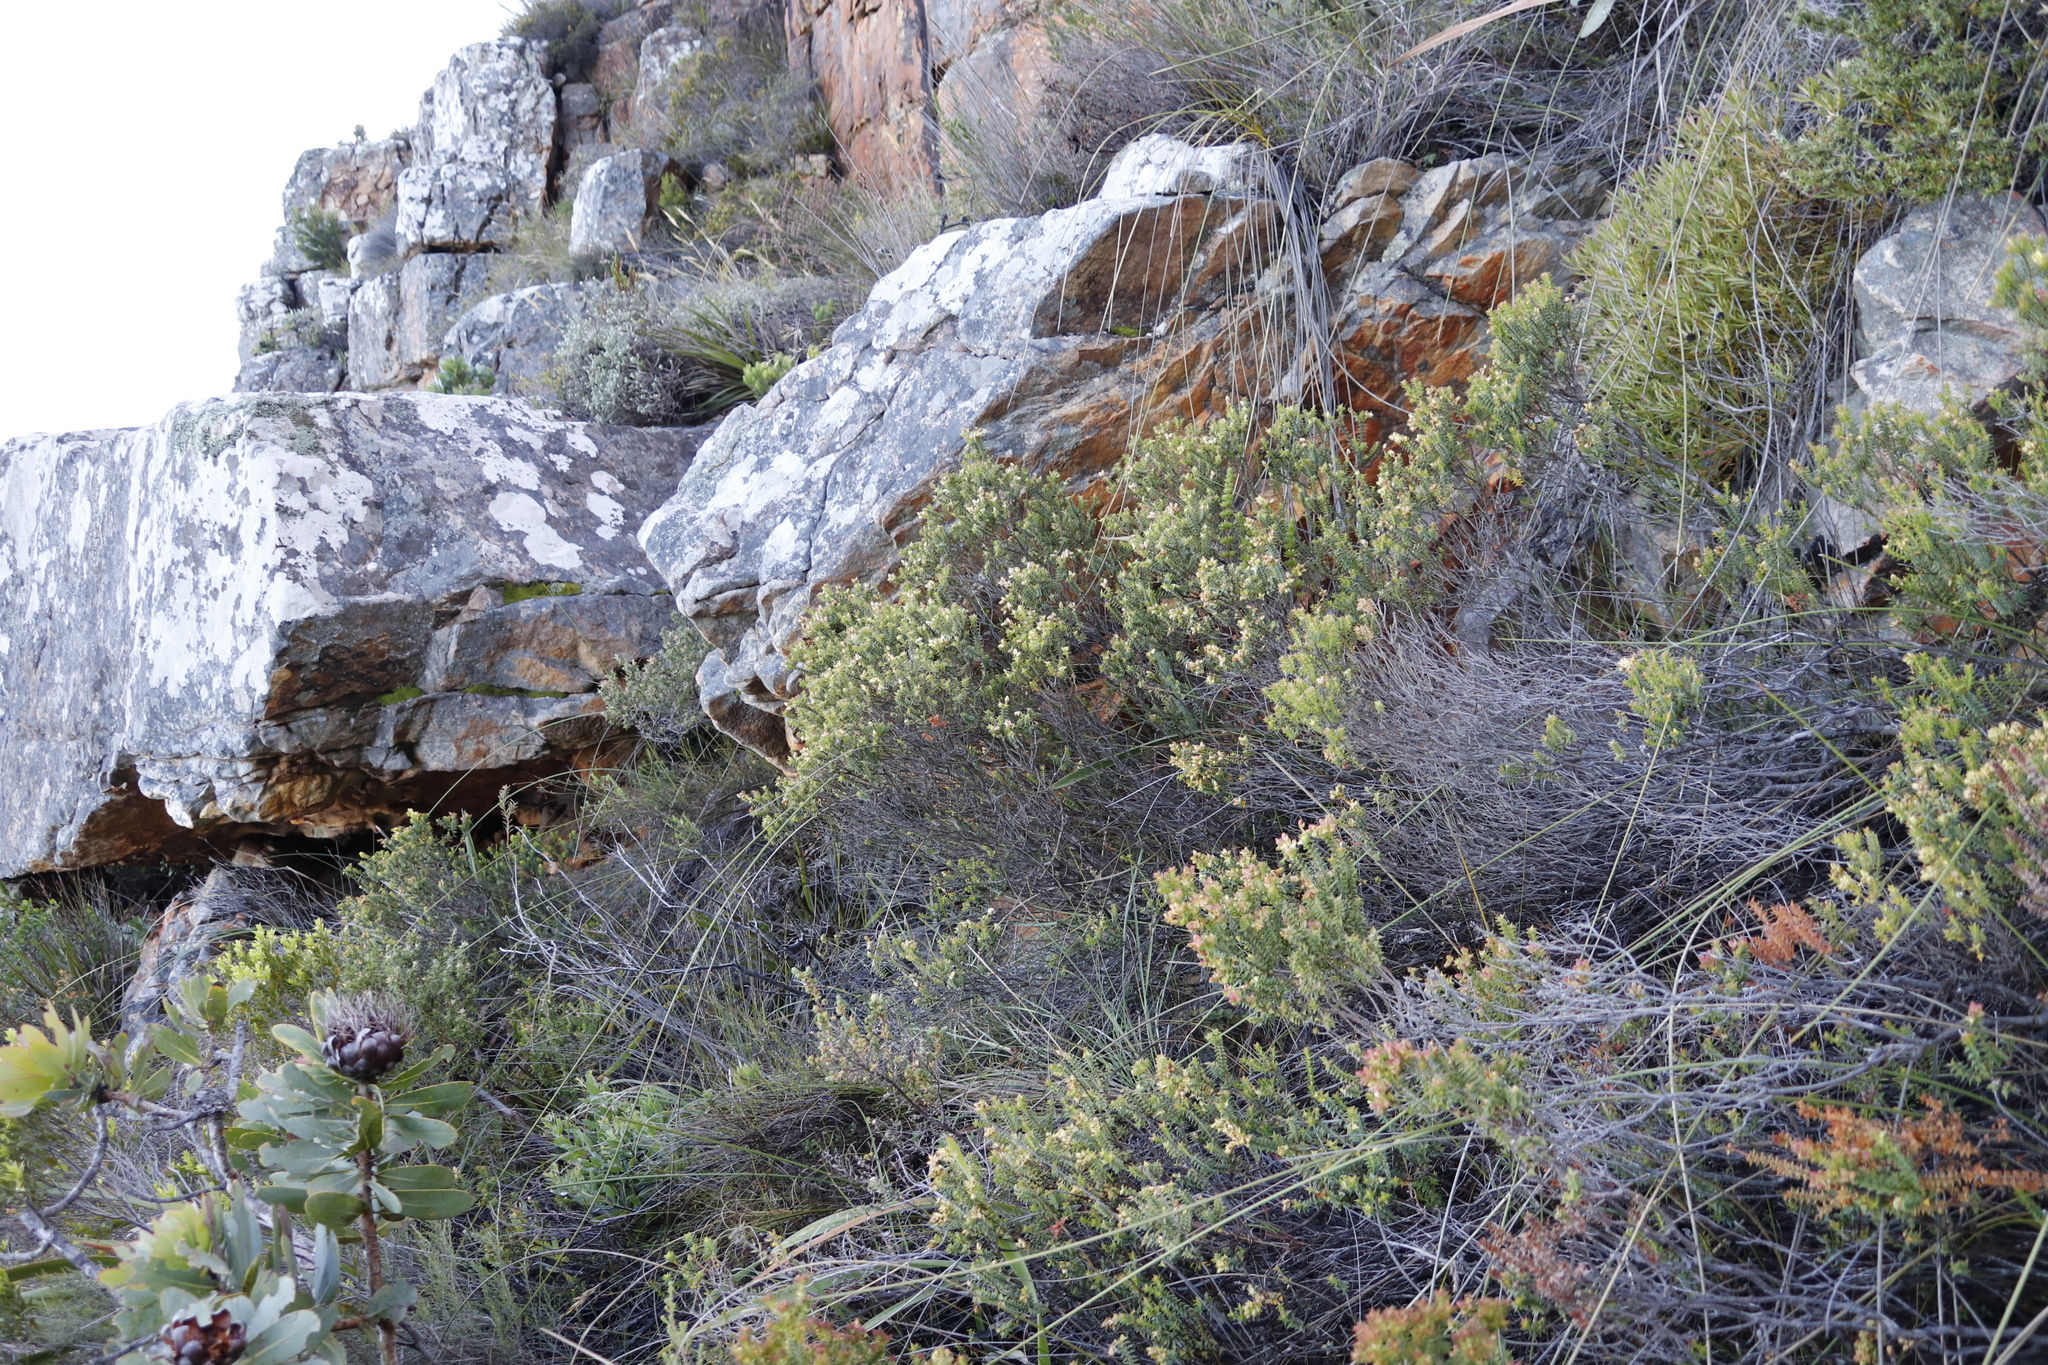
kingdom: Plantae
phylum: Tracheophyta
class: Magnoliopsida
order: Myrtales
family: Penaeaceae
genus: Penaea
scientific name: Penaea mucronata
